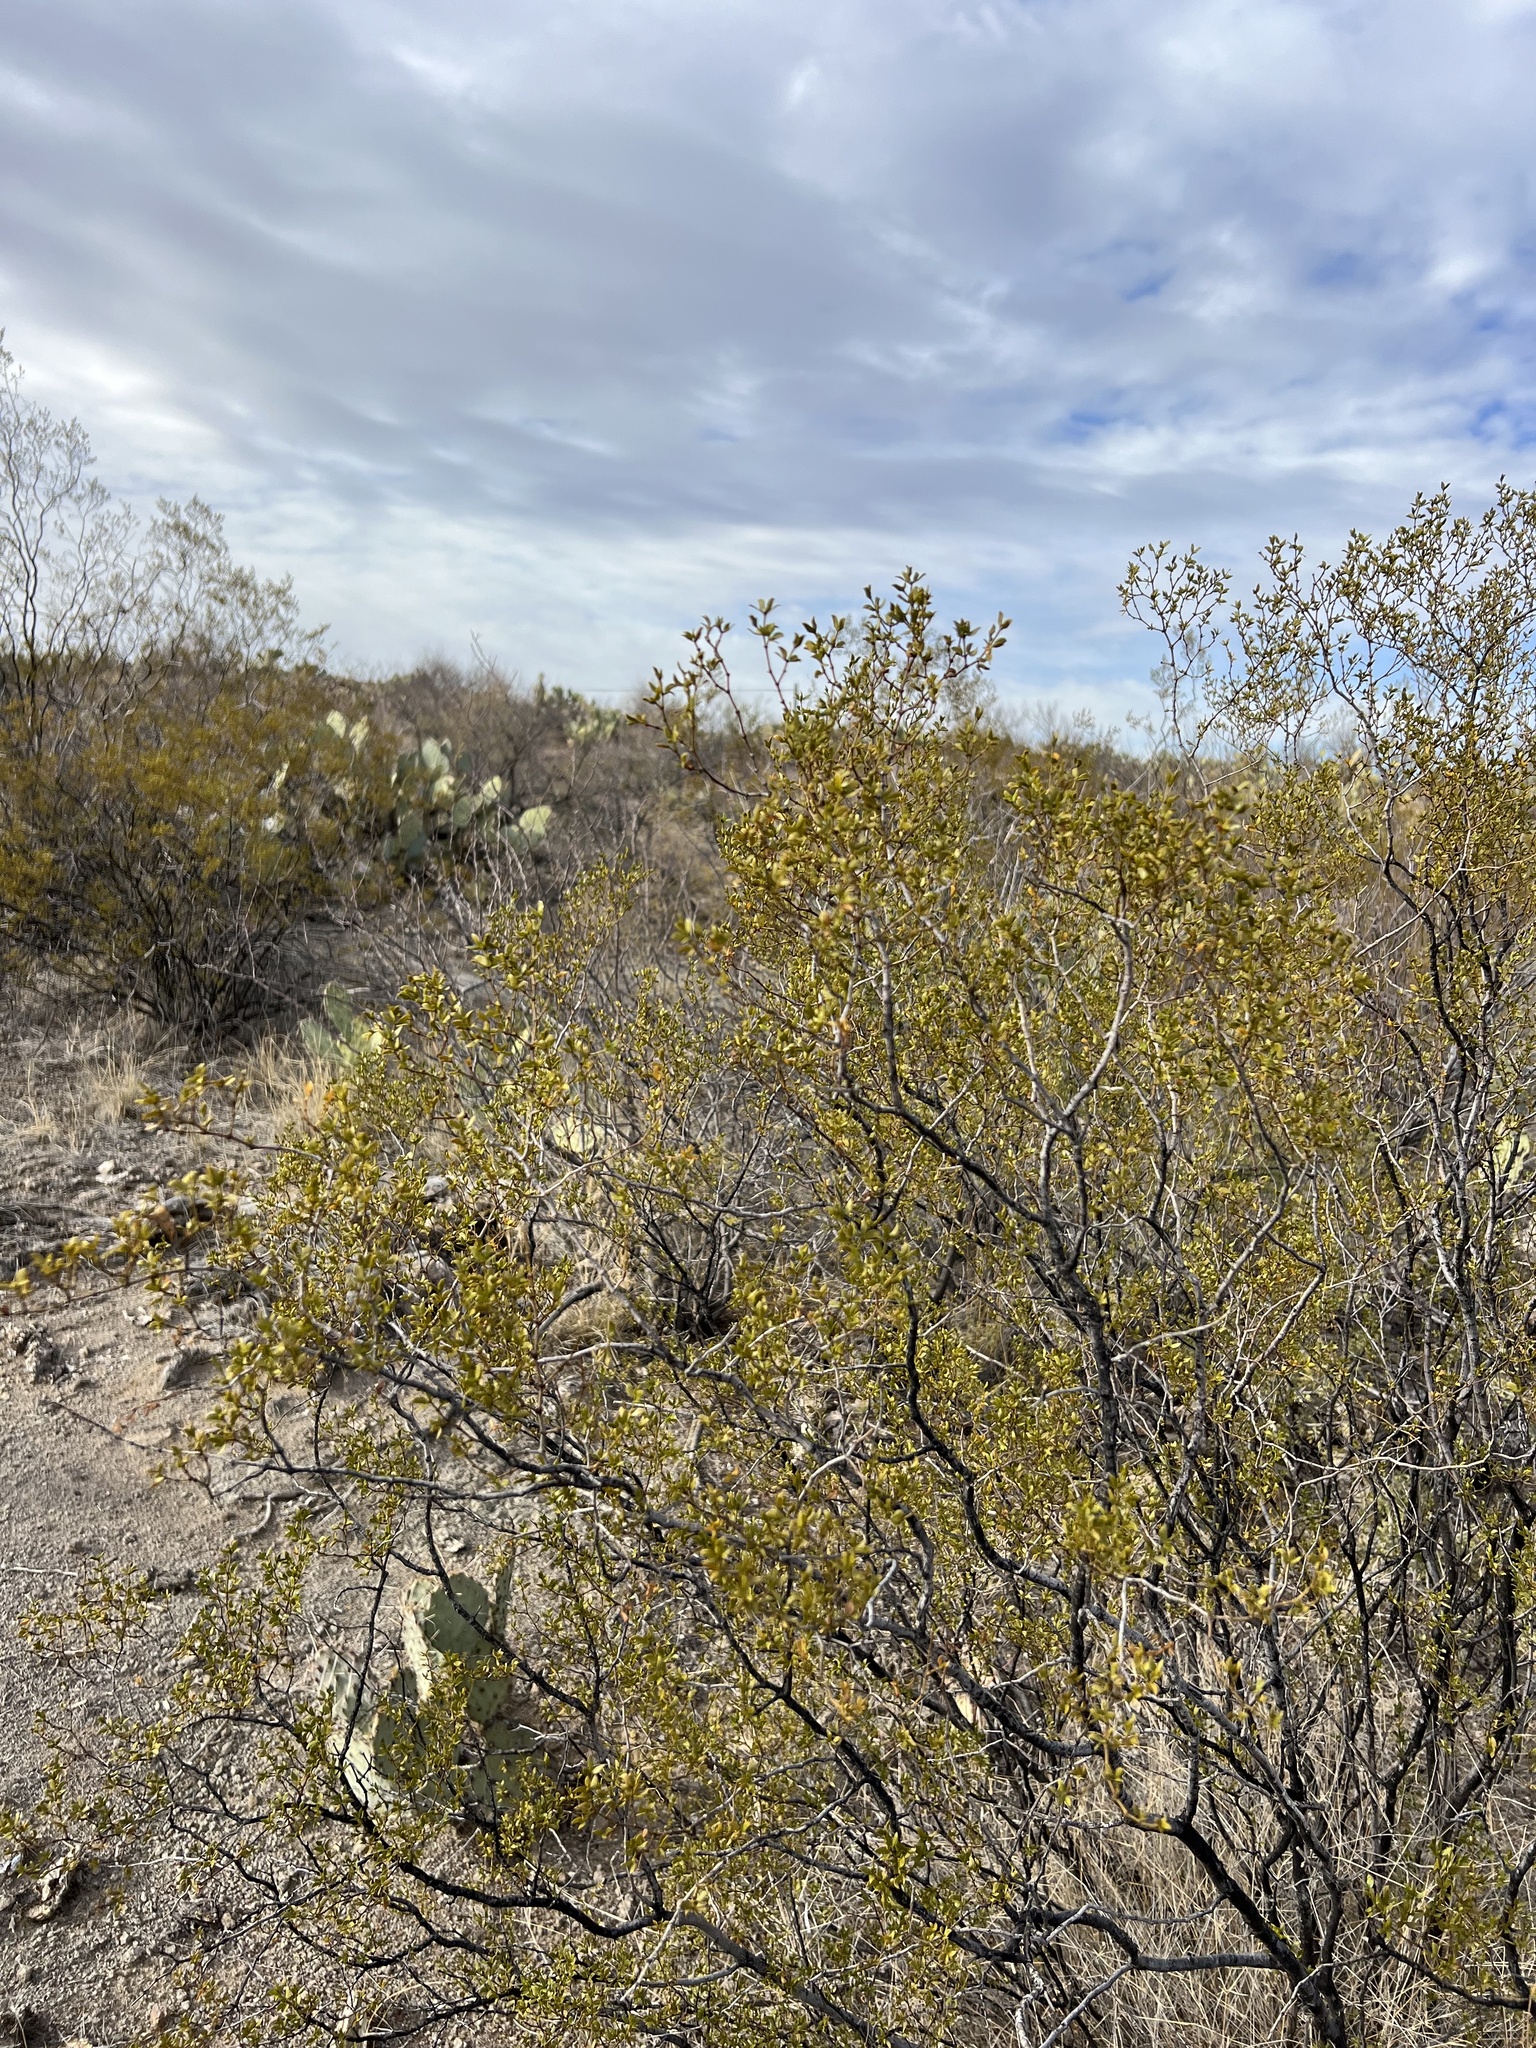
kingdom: Plantae
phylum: Tracheophyta
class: Magnoliopsida
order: Zygophyllales
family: Zygophyllaceae
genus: Larrea
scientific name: Larrea tridentata
